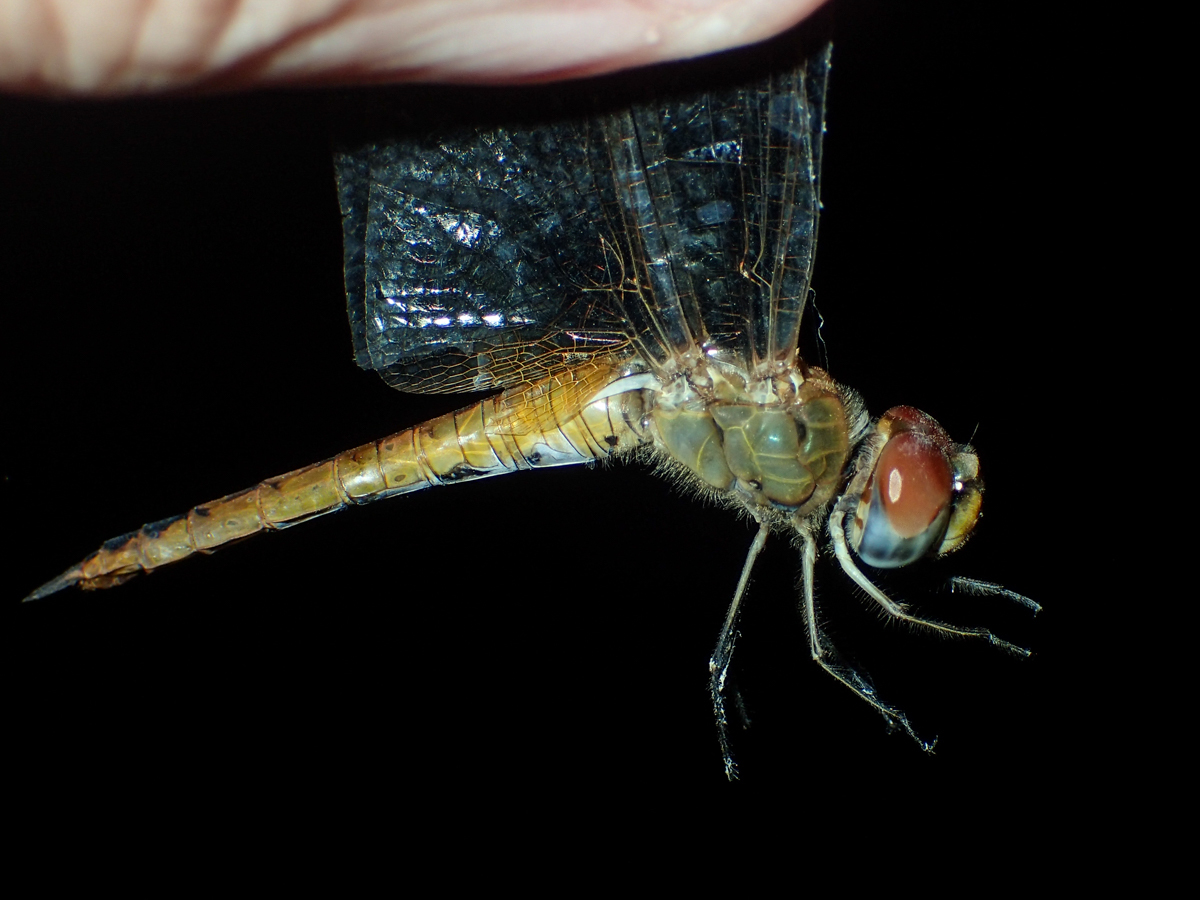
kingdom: Animalia
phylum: Arthropoda
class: Insecta
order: Odonata
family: Libellulidae
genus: Pantala
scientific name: Pantala flavescens
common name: Wandering glider
